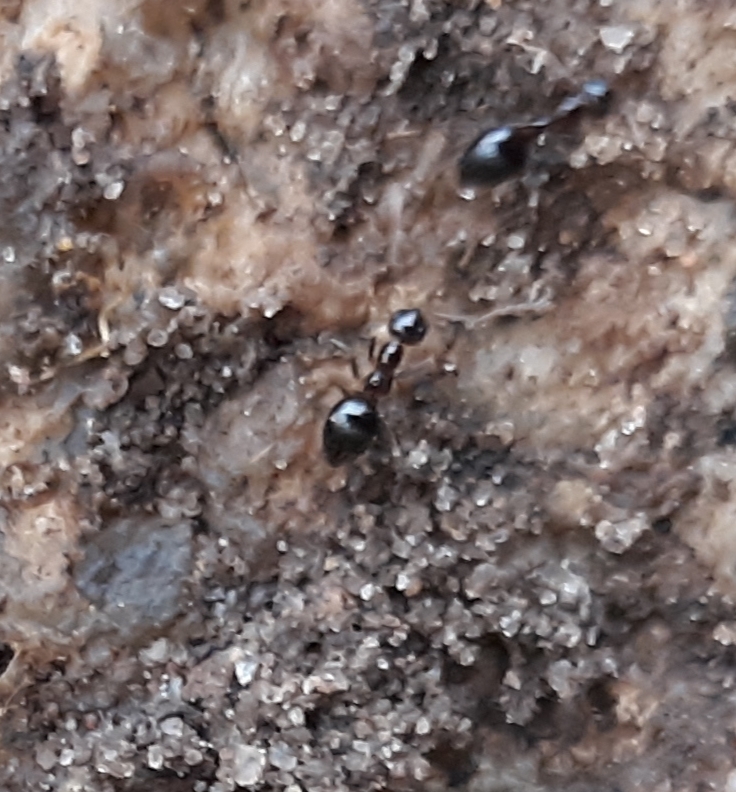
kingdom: Animalia
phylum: Arthropoda
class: Insecta
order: Hymenoptera
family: Formicidae
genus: Prenolepis
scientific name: Prenolepis imparis
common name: Small honey ant
